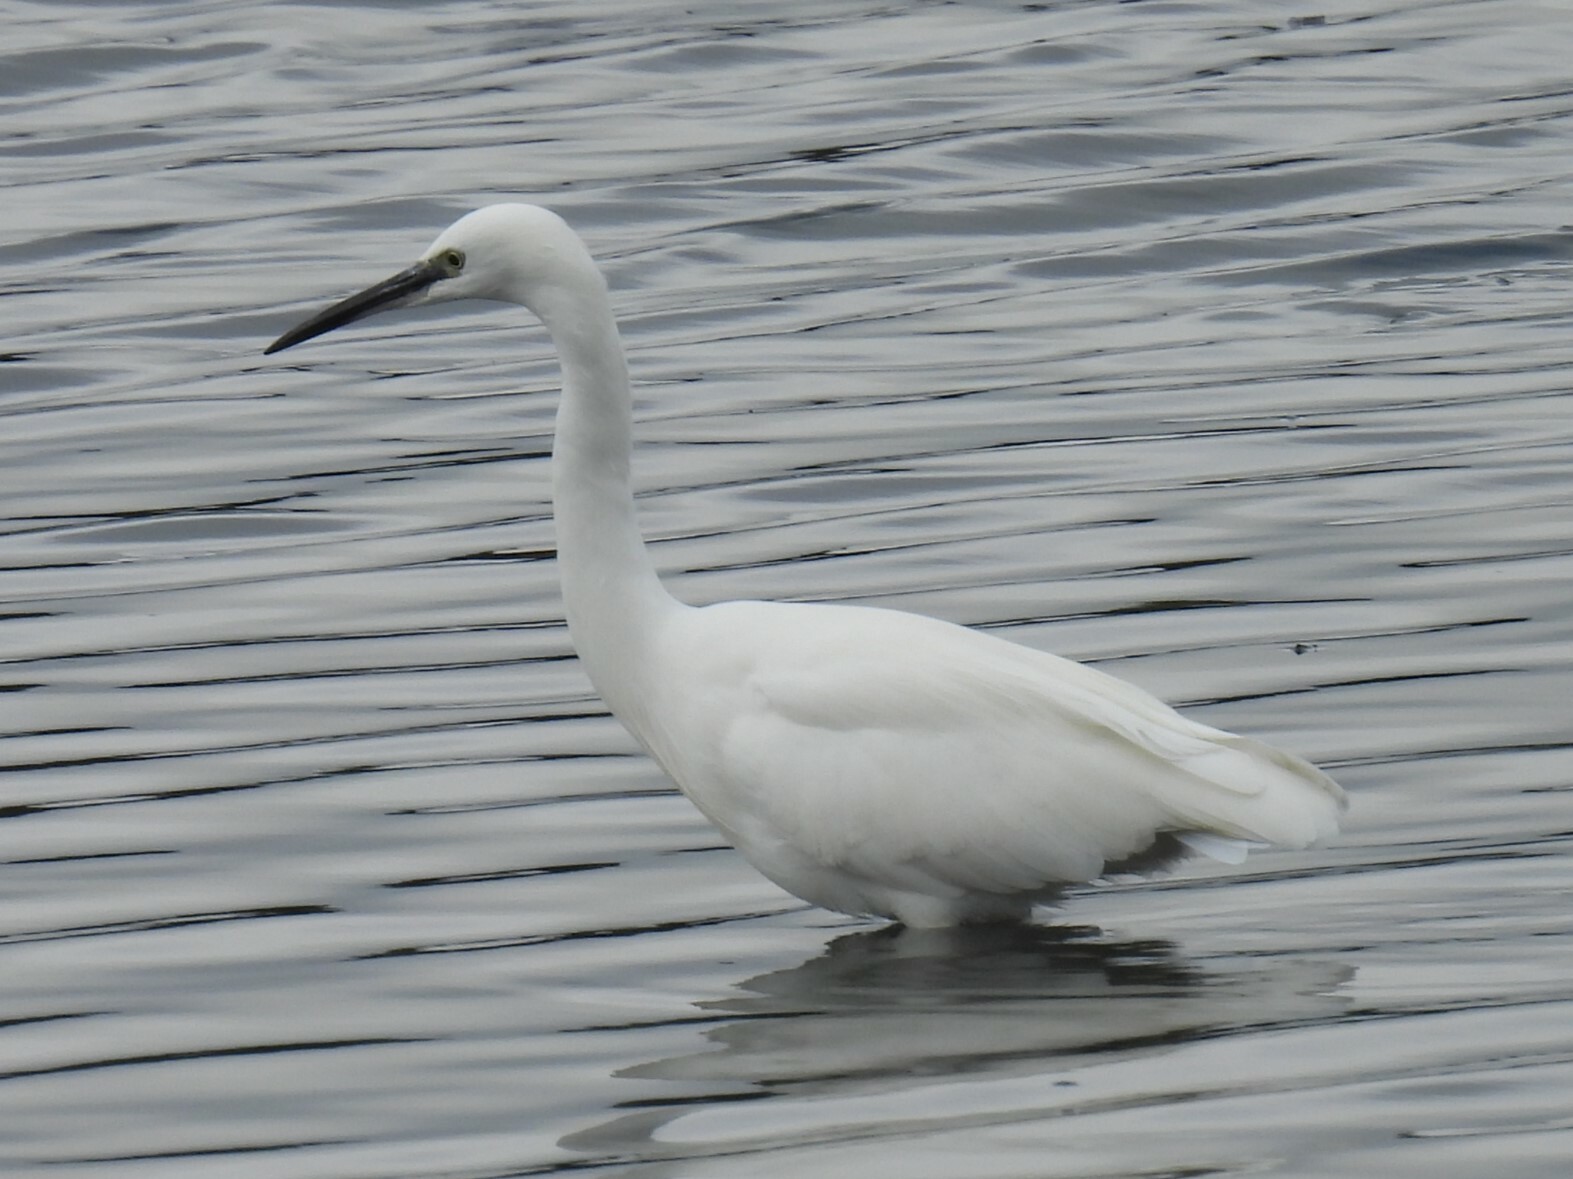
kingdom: Animalia
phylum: Chordata
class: Aves
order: Pelecaniformes
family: Ardeidae
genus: Egretta
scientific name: Egretta garzetta
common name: Little egret
